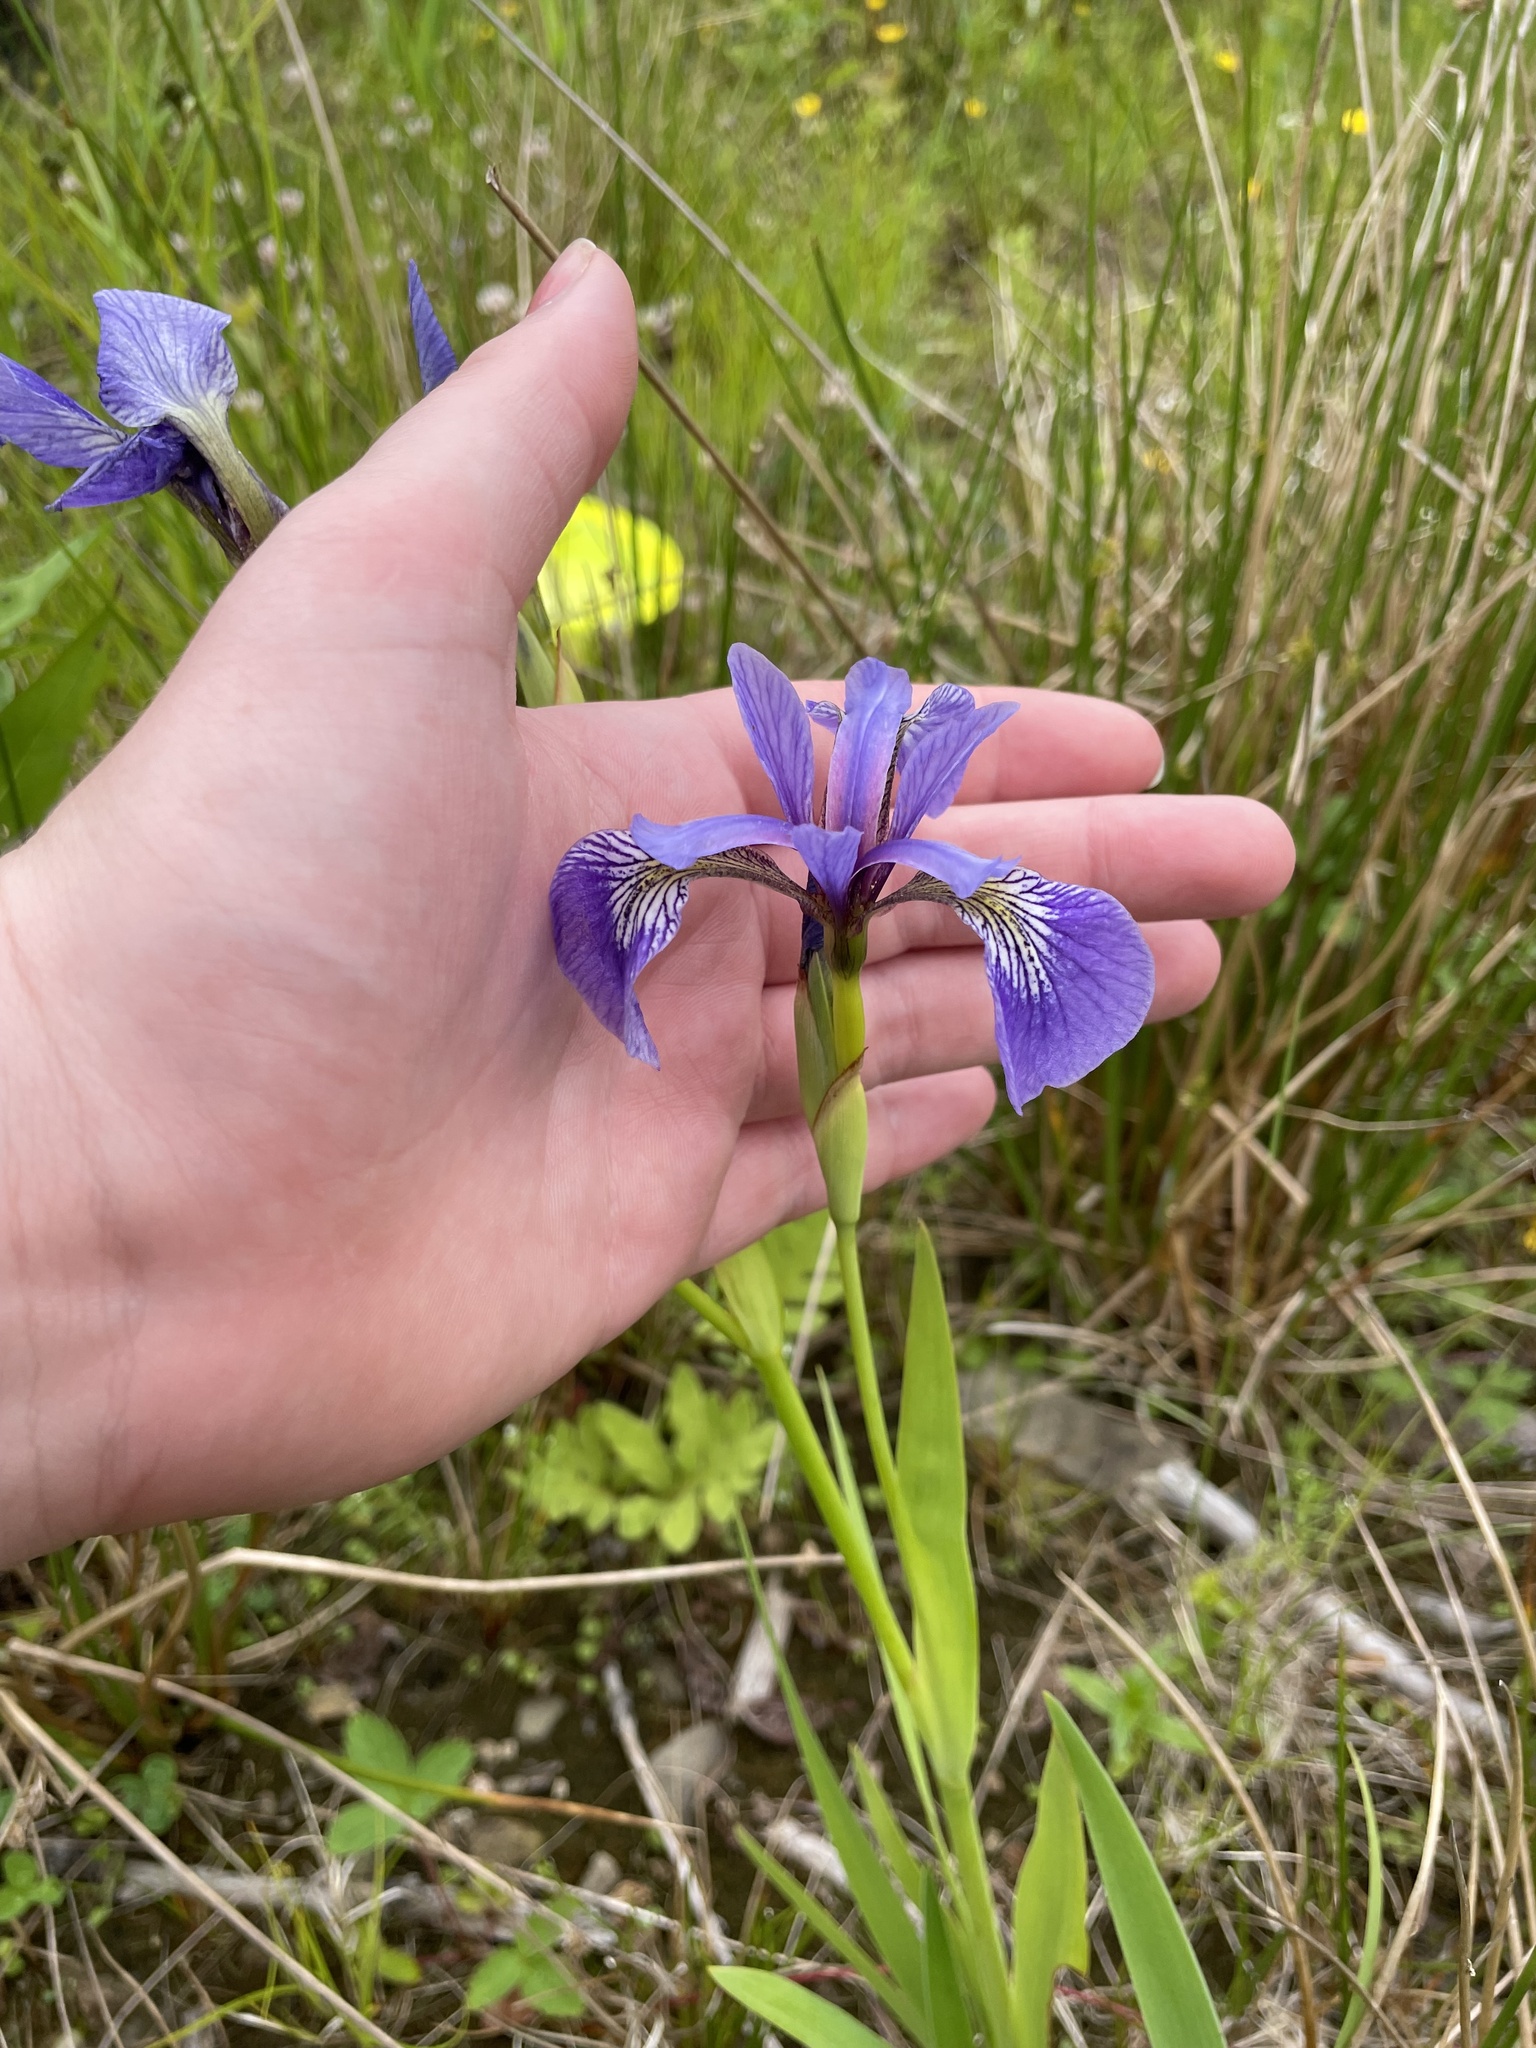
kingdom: Plantae
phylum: Tracheophyta
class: Liliopsida
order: Asparagales
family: Iridaceae
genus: Iris
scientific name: Iris versicolor
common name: Purple iris
